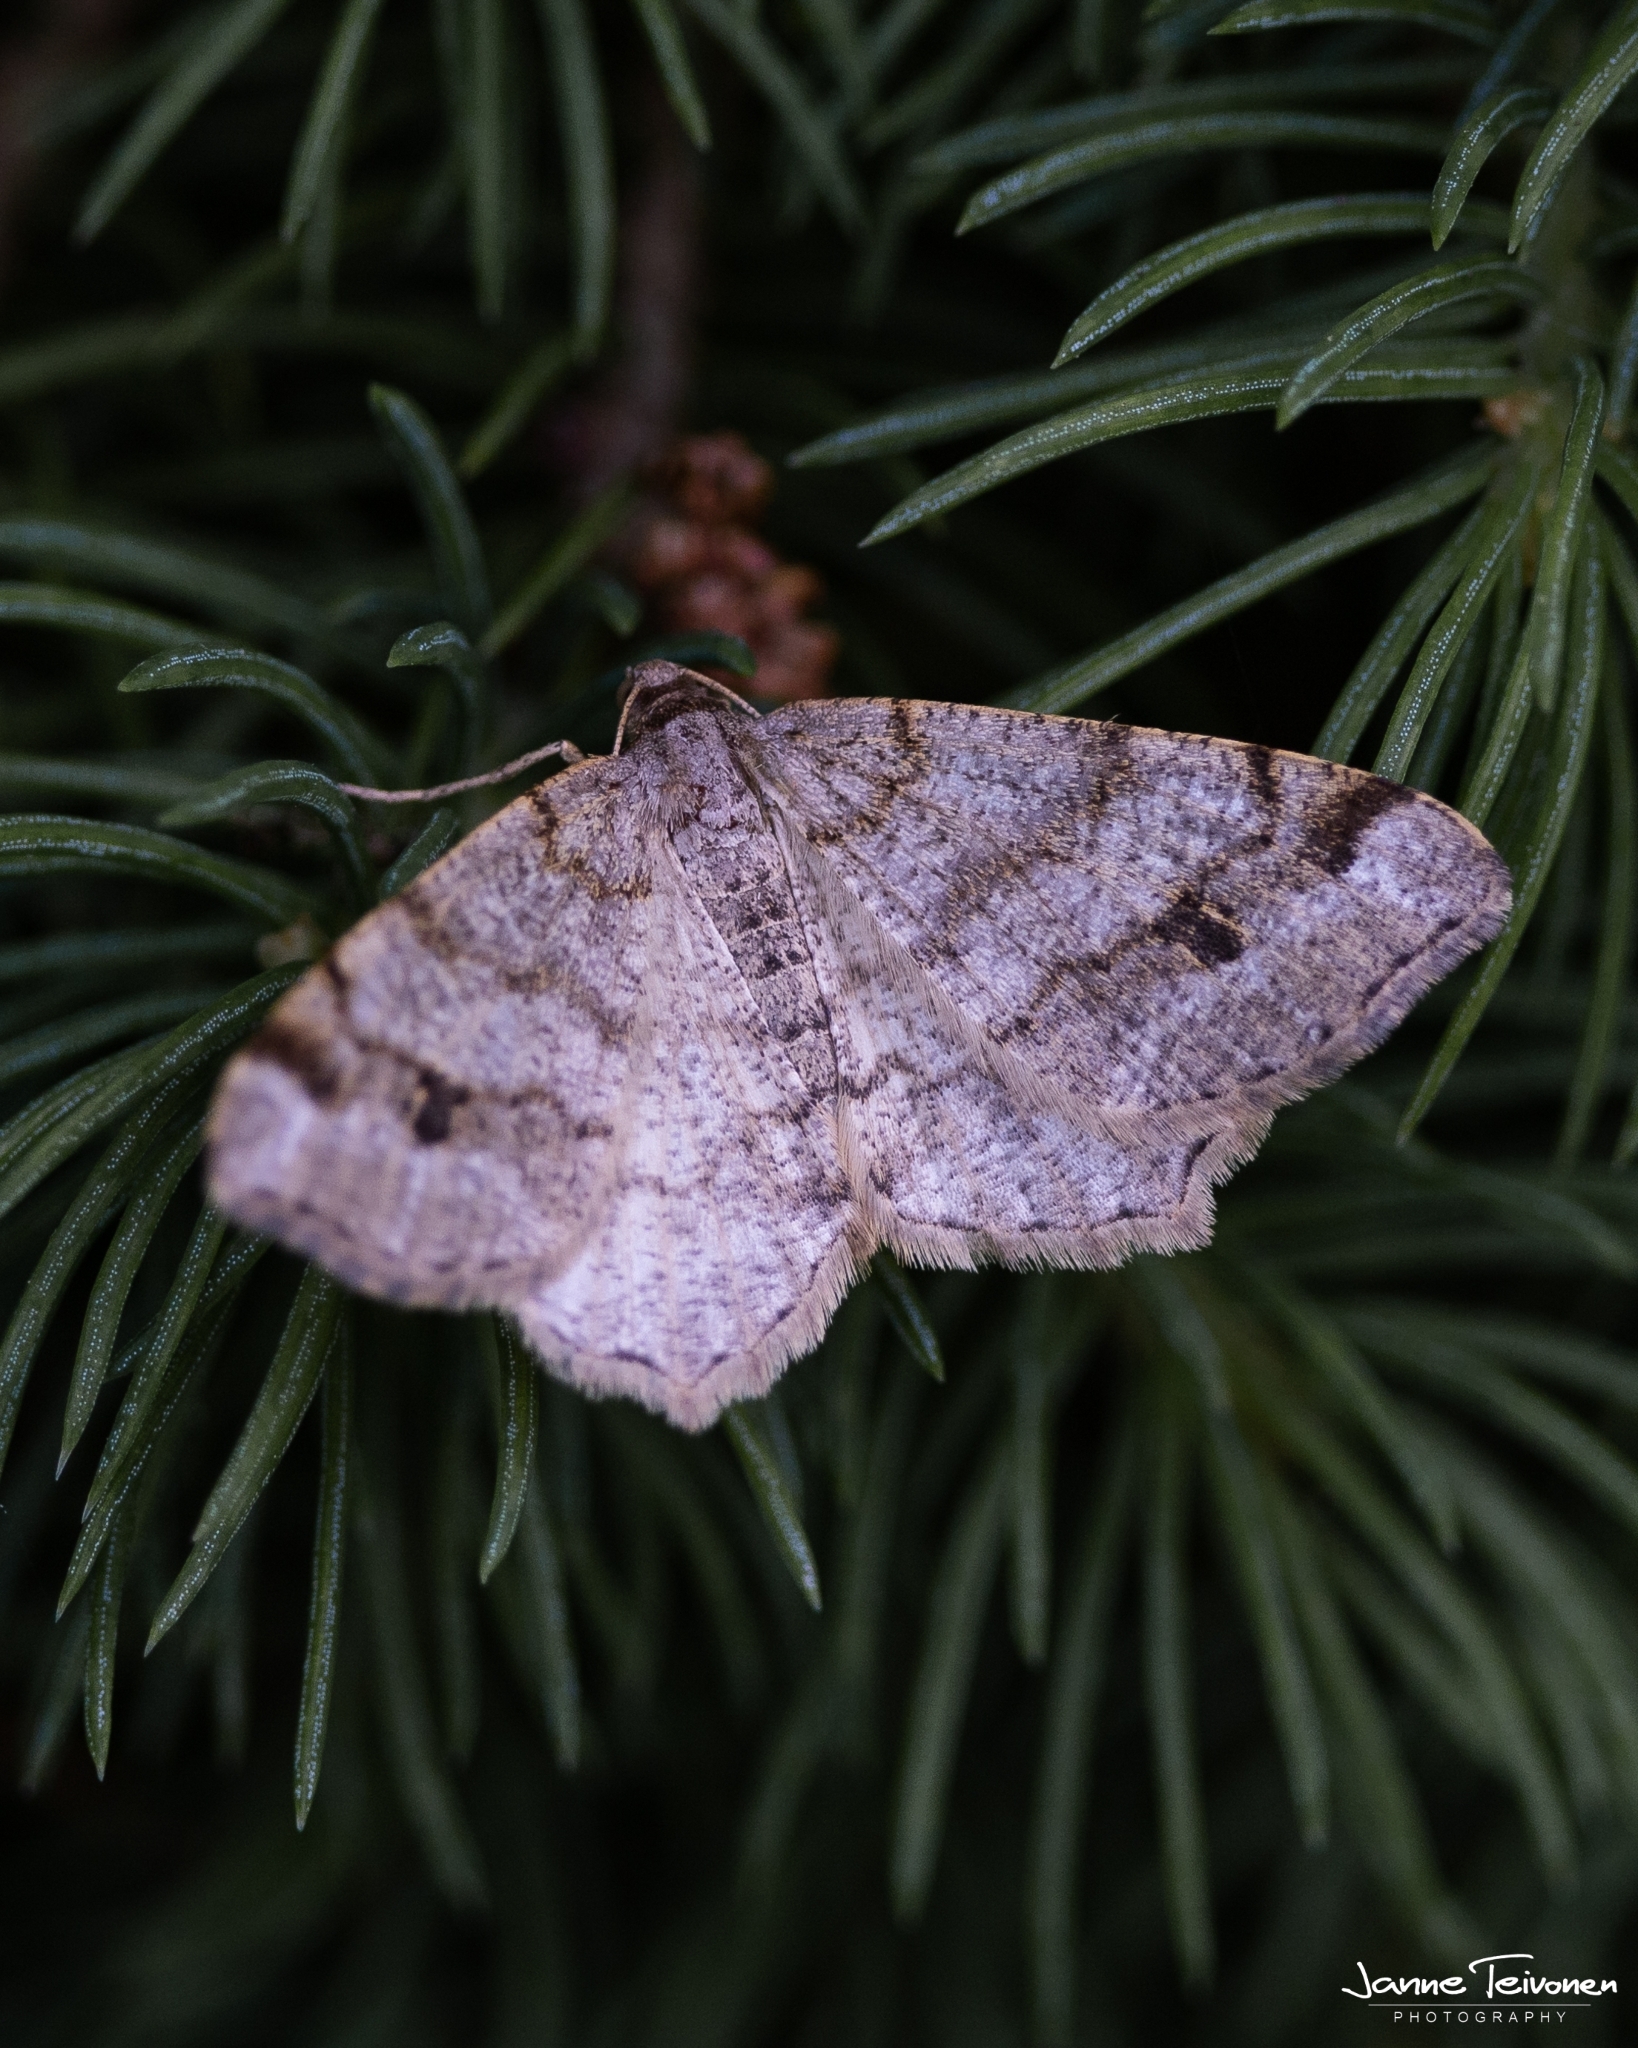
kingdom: Animalia
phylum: Arthropoda
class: Insecta
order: Lepidoptera
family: Geometridae
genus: Macaria
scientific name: Macaria signaria
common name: Dusky peacock
